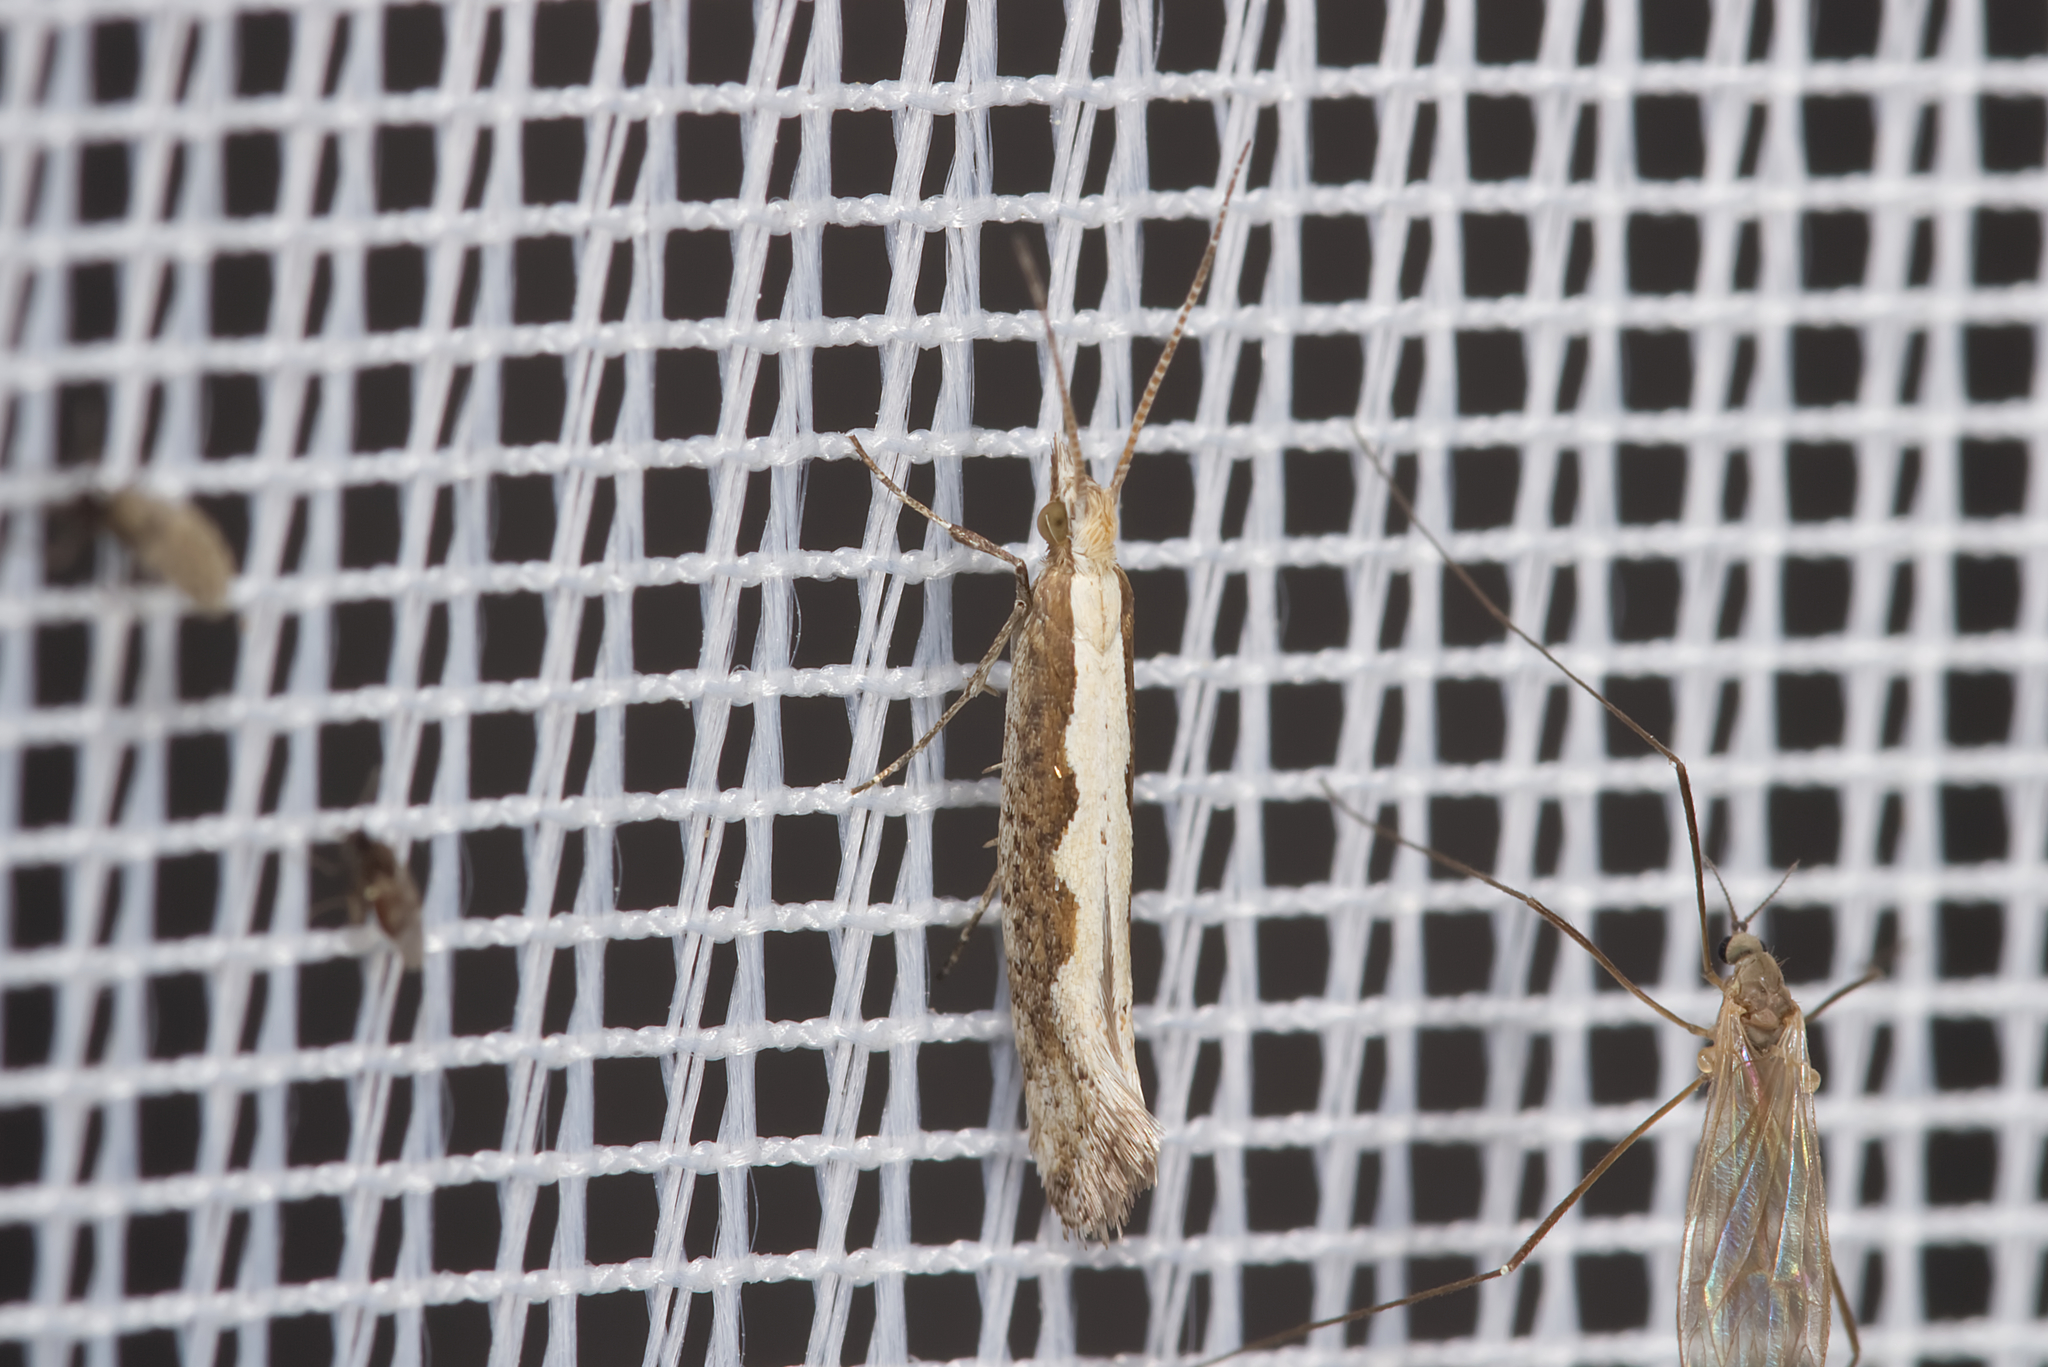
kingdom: Animalia
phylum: Arthropoda
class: Insecta
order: Lepidoptera
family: Plutellidae
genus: Plutella
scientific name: Plutella xylostella
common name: Diamond-back moth
